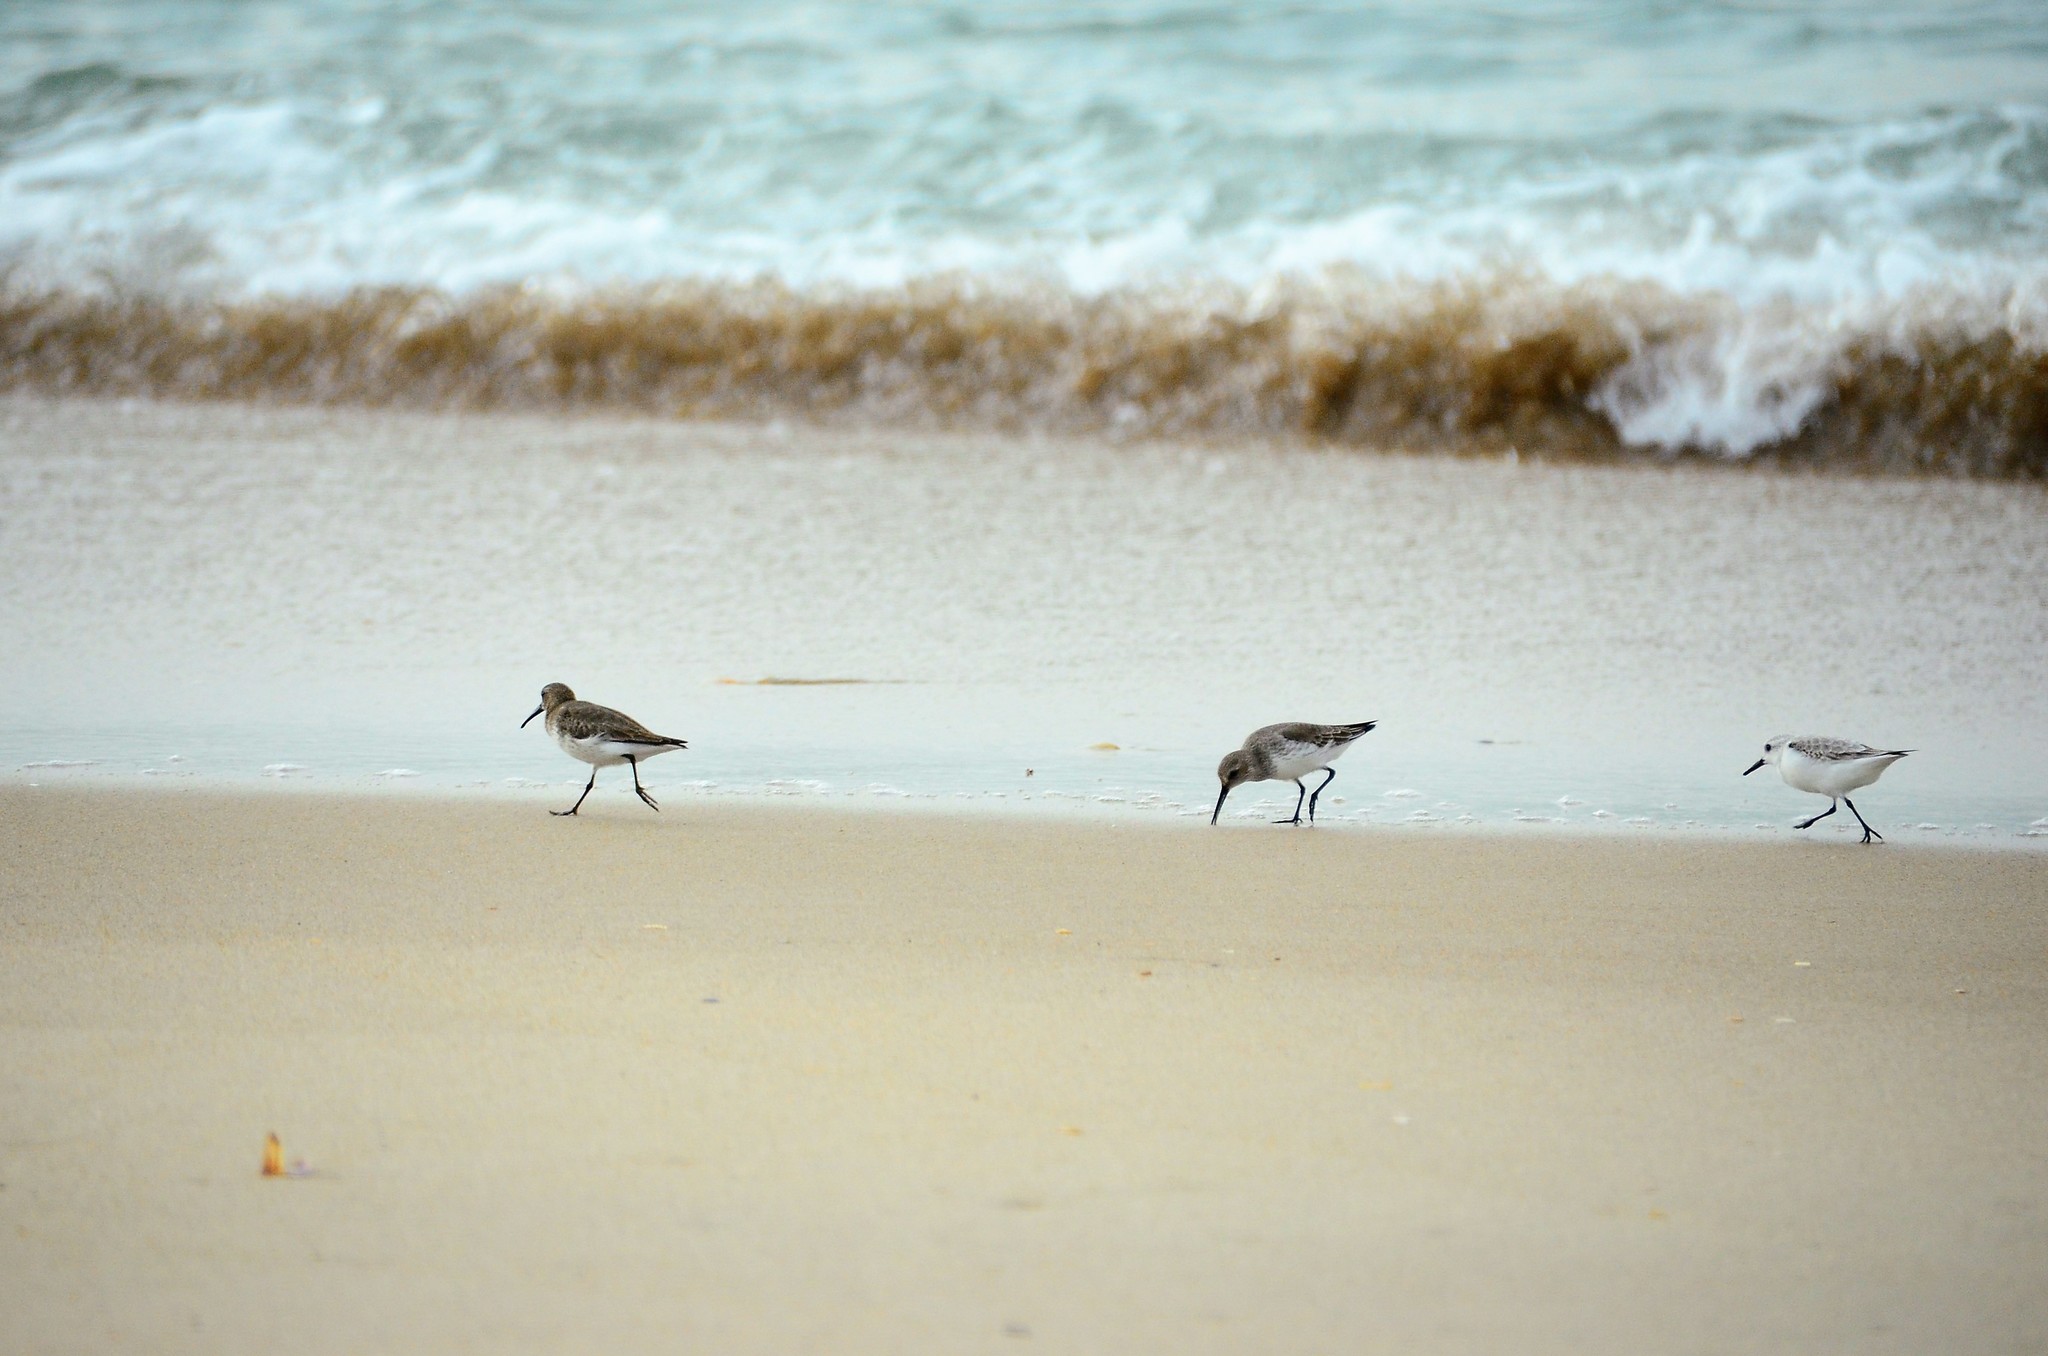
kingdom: Animalia
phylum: Chordata
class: Aves
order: Charadriiformes
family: Scolopacidae
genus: Calidris
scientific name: Calidris alba
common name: Sanderling
